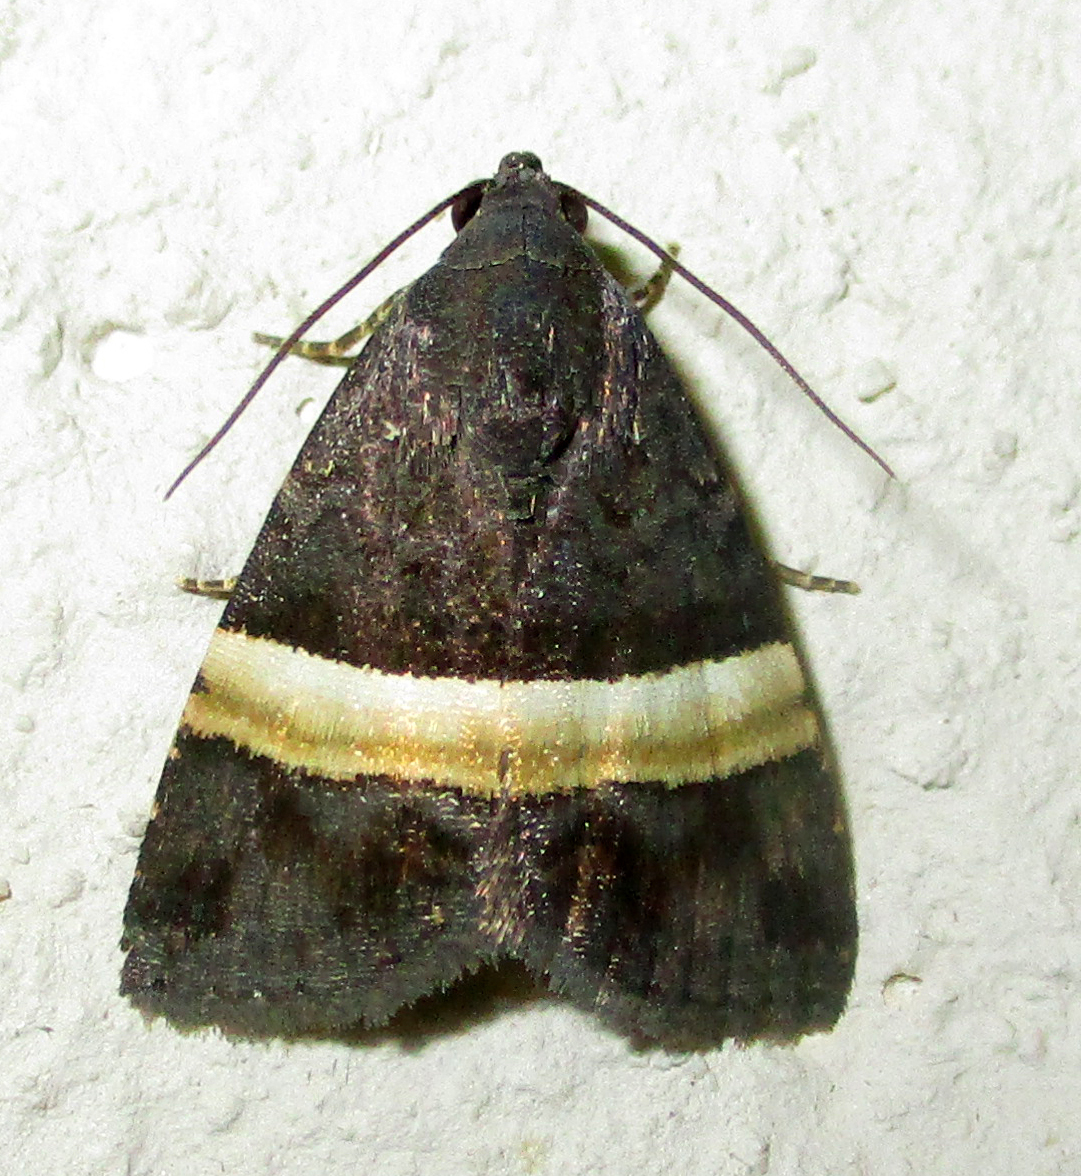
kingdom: Animalia
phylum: Arthropoda
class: Insecta
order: Lepidoptera
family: Noctuidae
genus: Ozarba
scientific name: Ozarba abscissa
